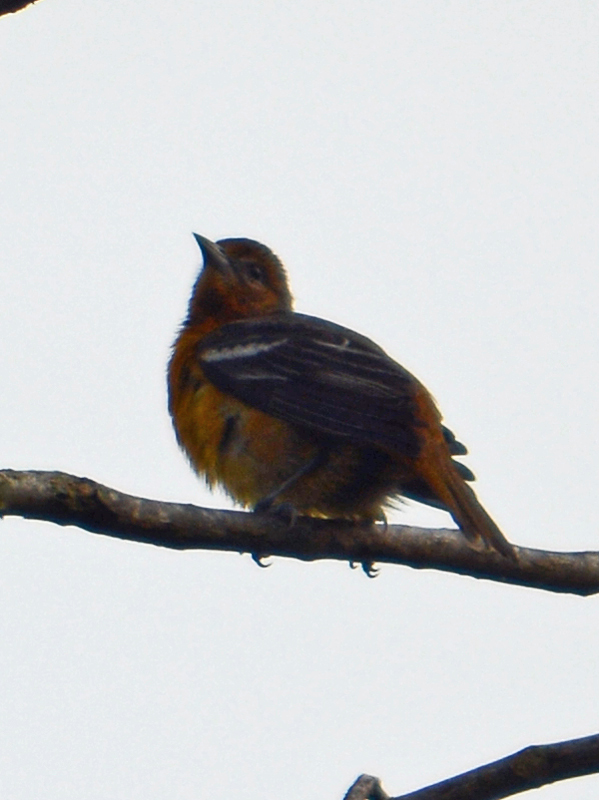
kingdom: Animalia
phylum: Chordata
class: Aves
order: Passeriformes
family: Icteridae
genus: Icterus
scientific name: Icterus galbula
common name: Baltimore oriole
